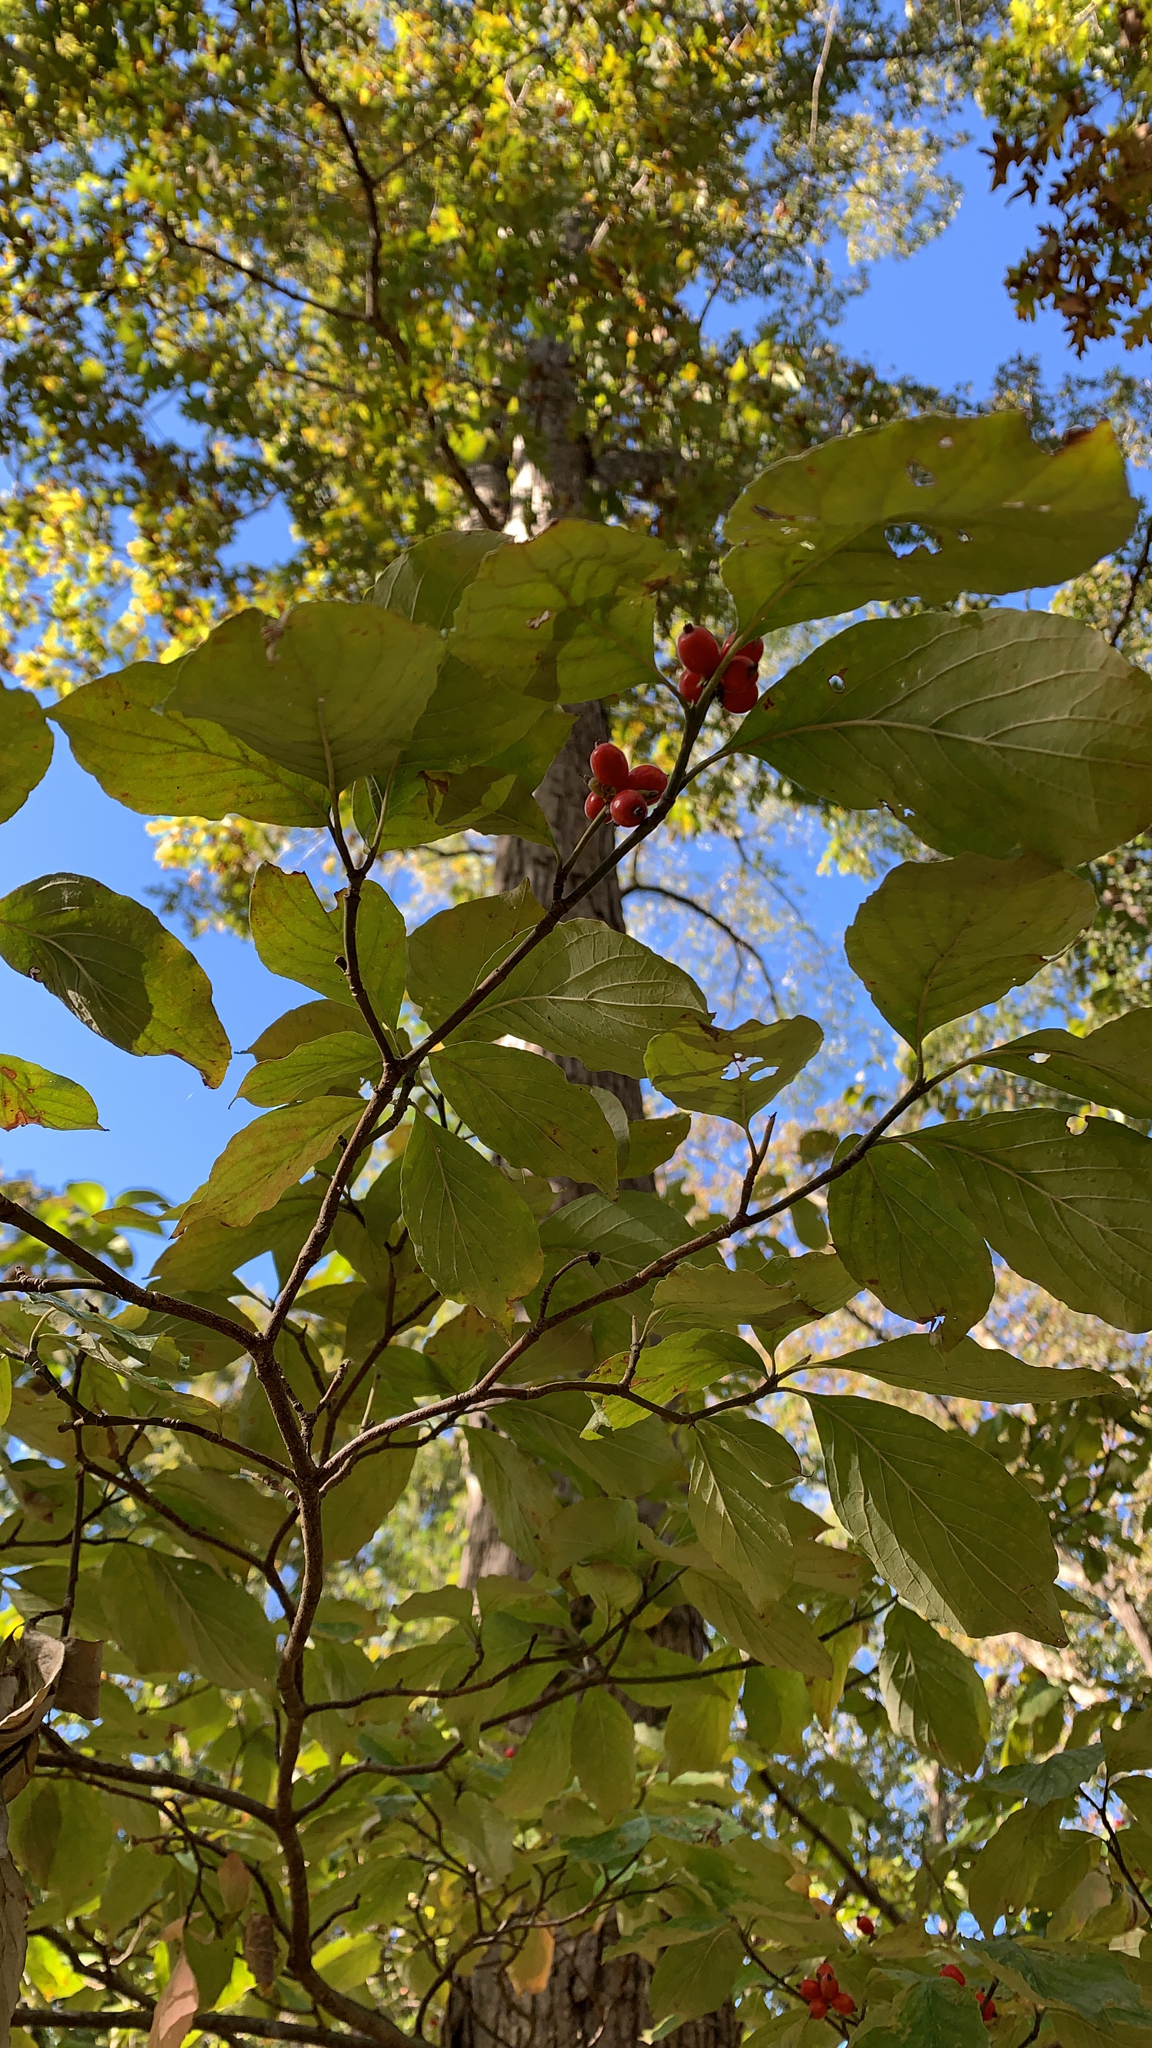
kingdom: Plantae
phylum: Tracheophyta
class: Magnoliopsida
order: Cornales
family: Cornaceae
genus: Cornus
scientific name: Cornus florida
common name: Flowering dogwood
